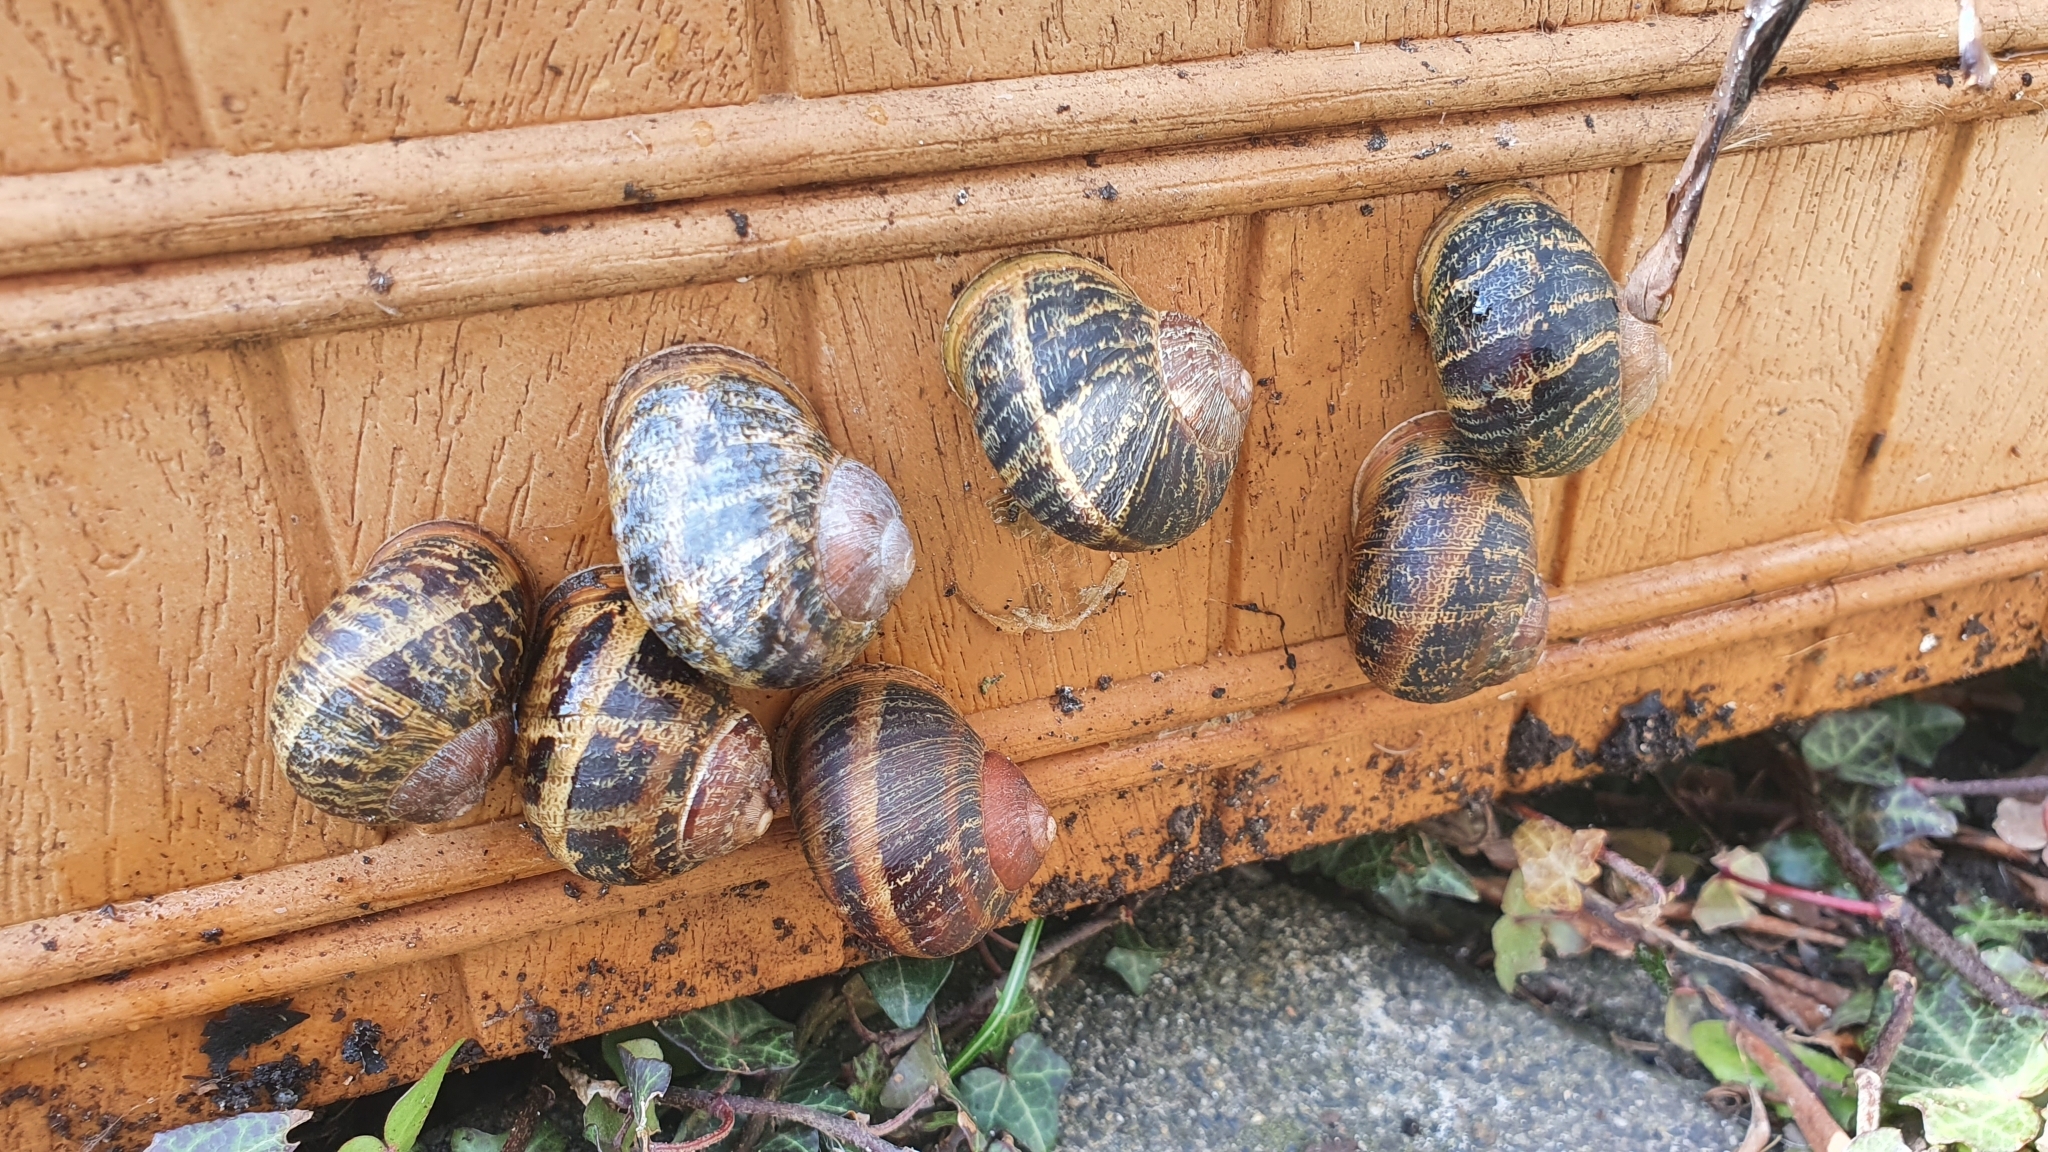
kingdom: Animalia
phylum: Mollusca
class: Gastropoda
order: Stylommatophora
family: Helicidae
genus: Cornu
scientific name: Cornu aspersum
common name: Brown garden snail
